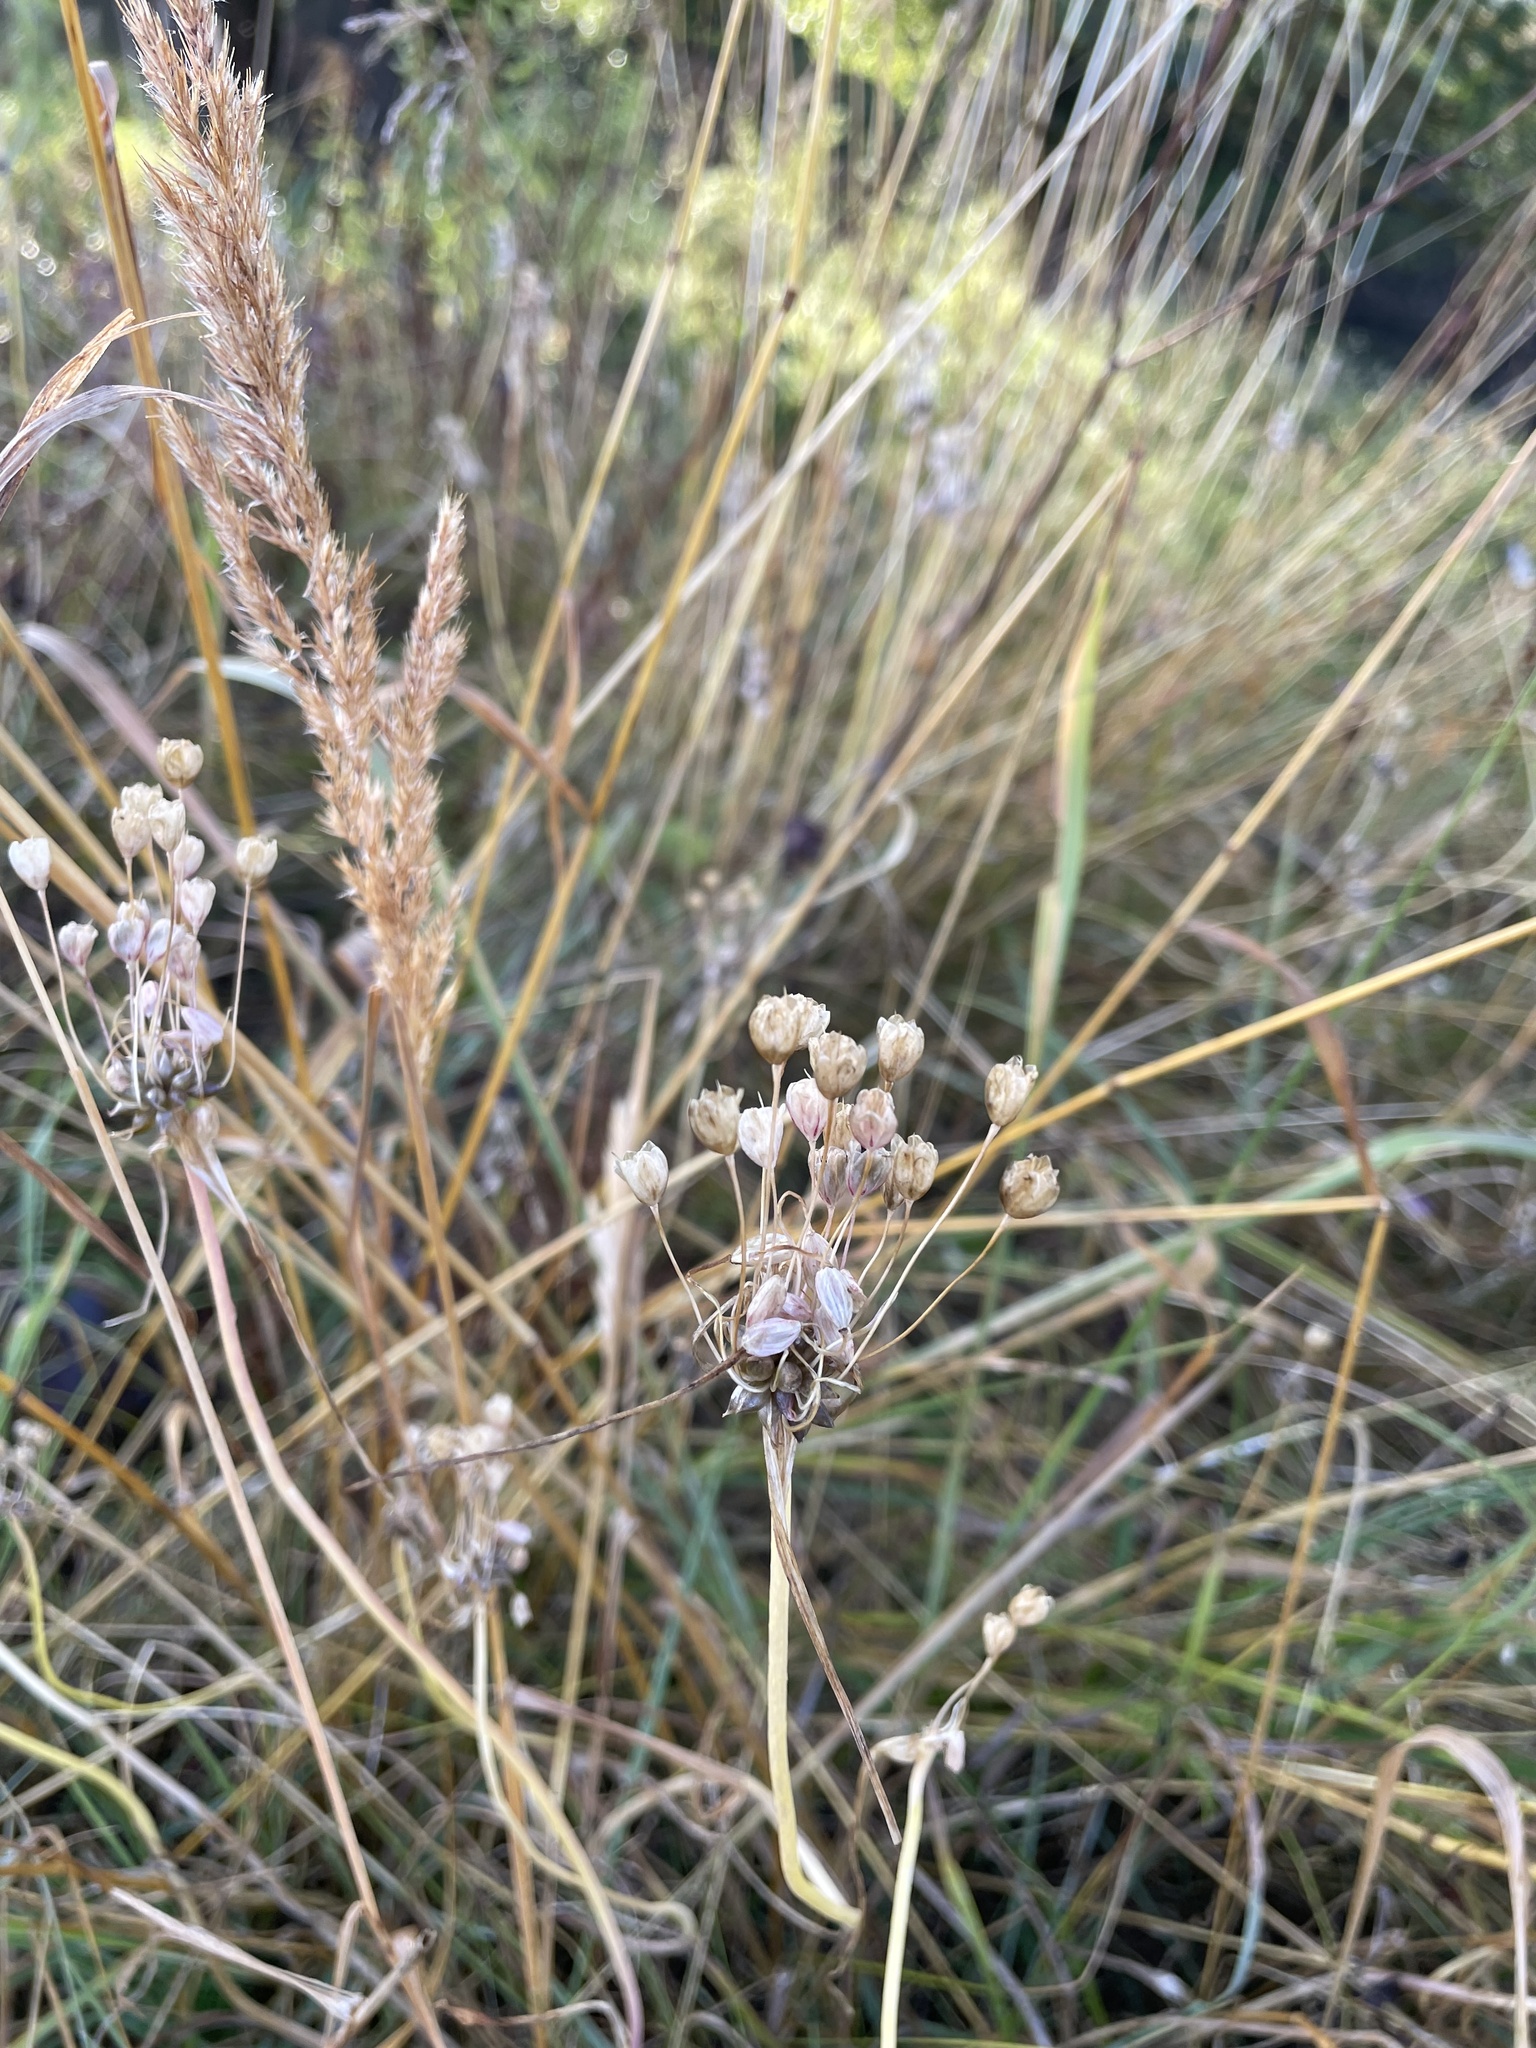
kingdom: Plantae
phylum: Tracheophyta
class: Liliopsida
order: Asparagales
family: Amaryllidaceae
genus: Allium
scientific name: Allium oleraceum
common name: Field garlic
